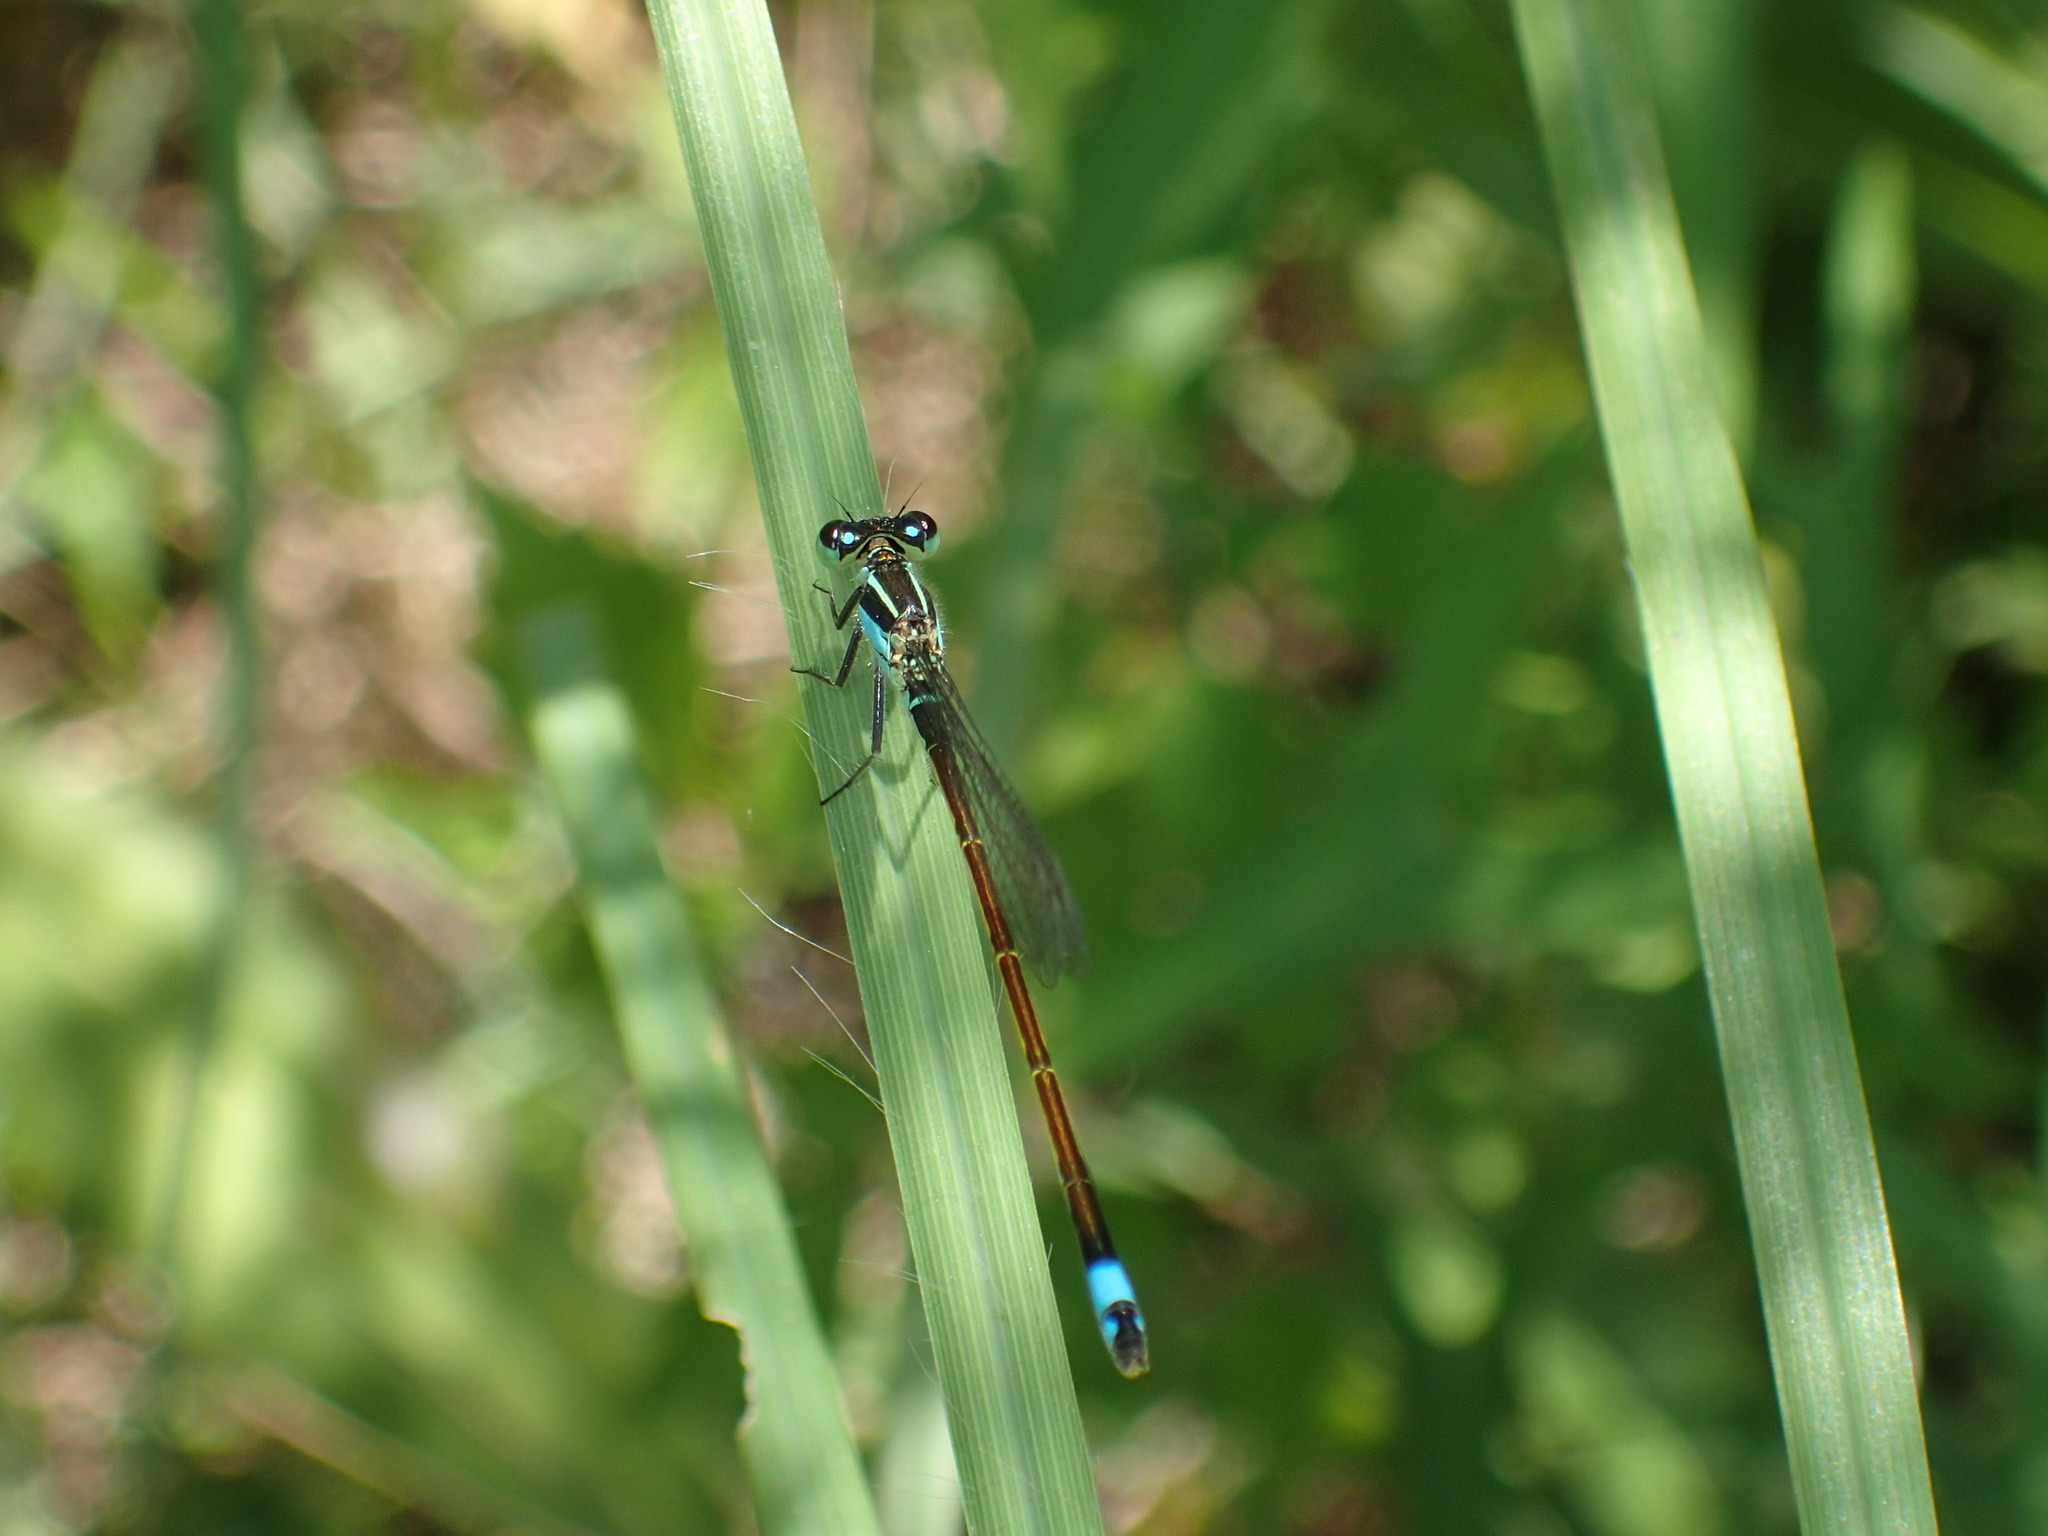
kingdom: Animalia
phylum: Arthropoda
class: Insecta
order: Odonata
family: Coenagrionidae
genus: Ischnura
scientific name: Ischnura ramburii
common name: Rambur's forktail
